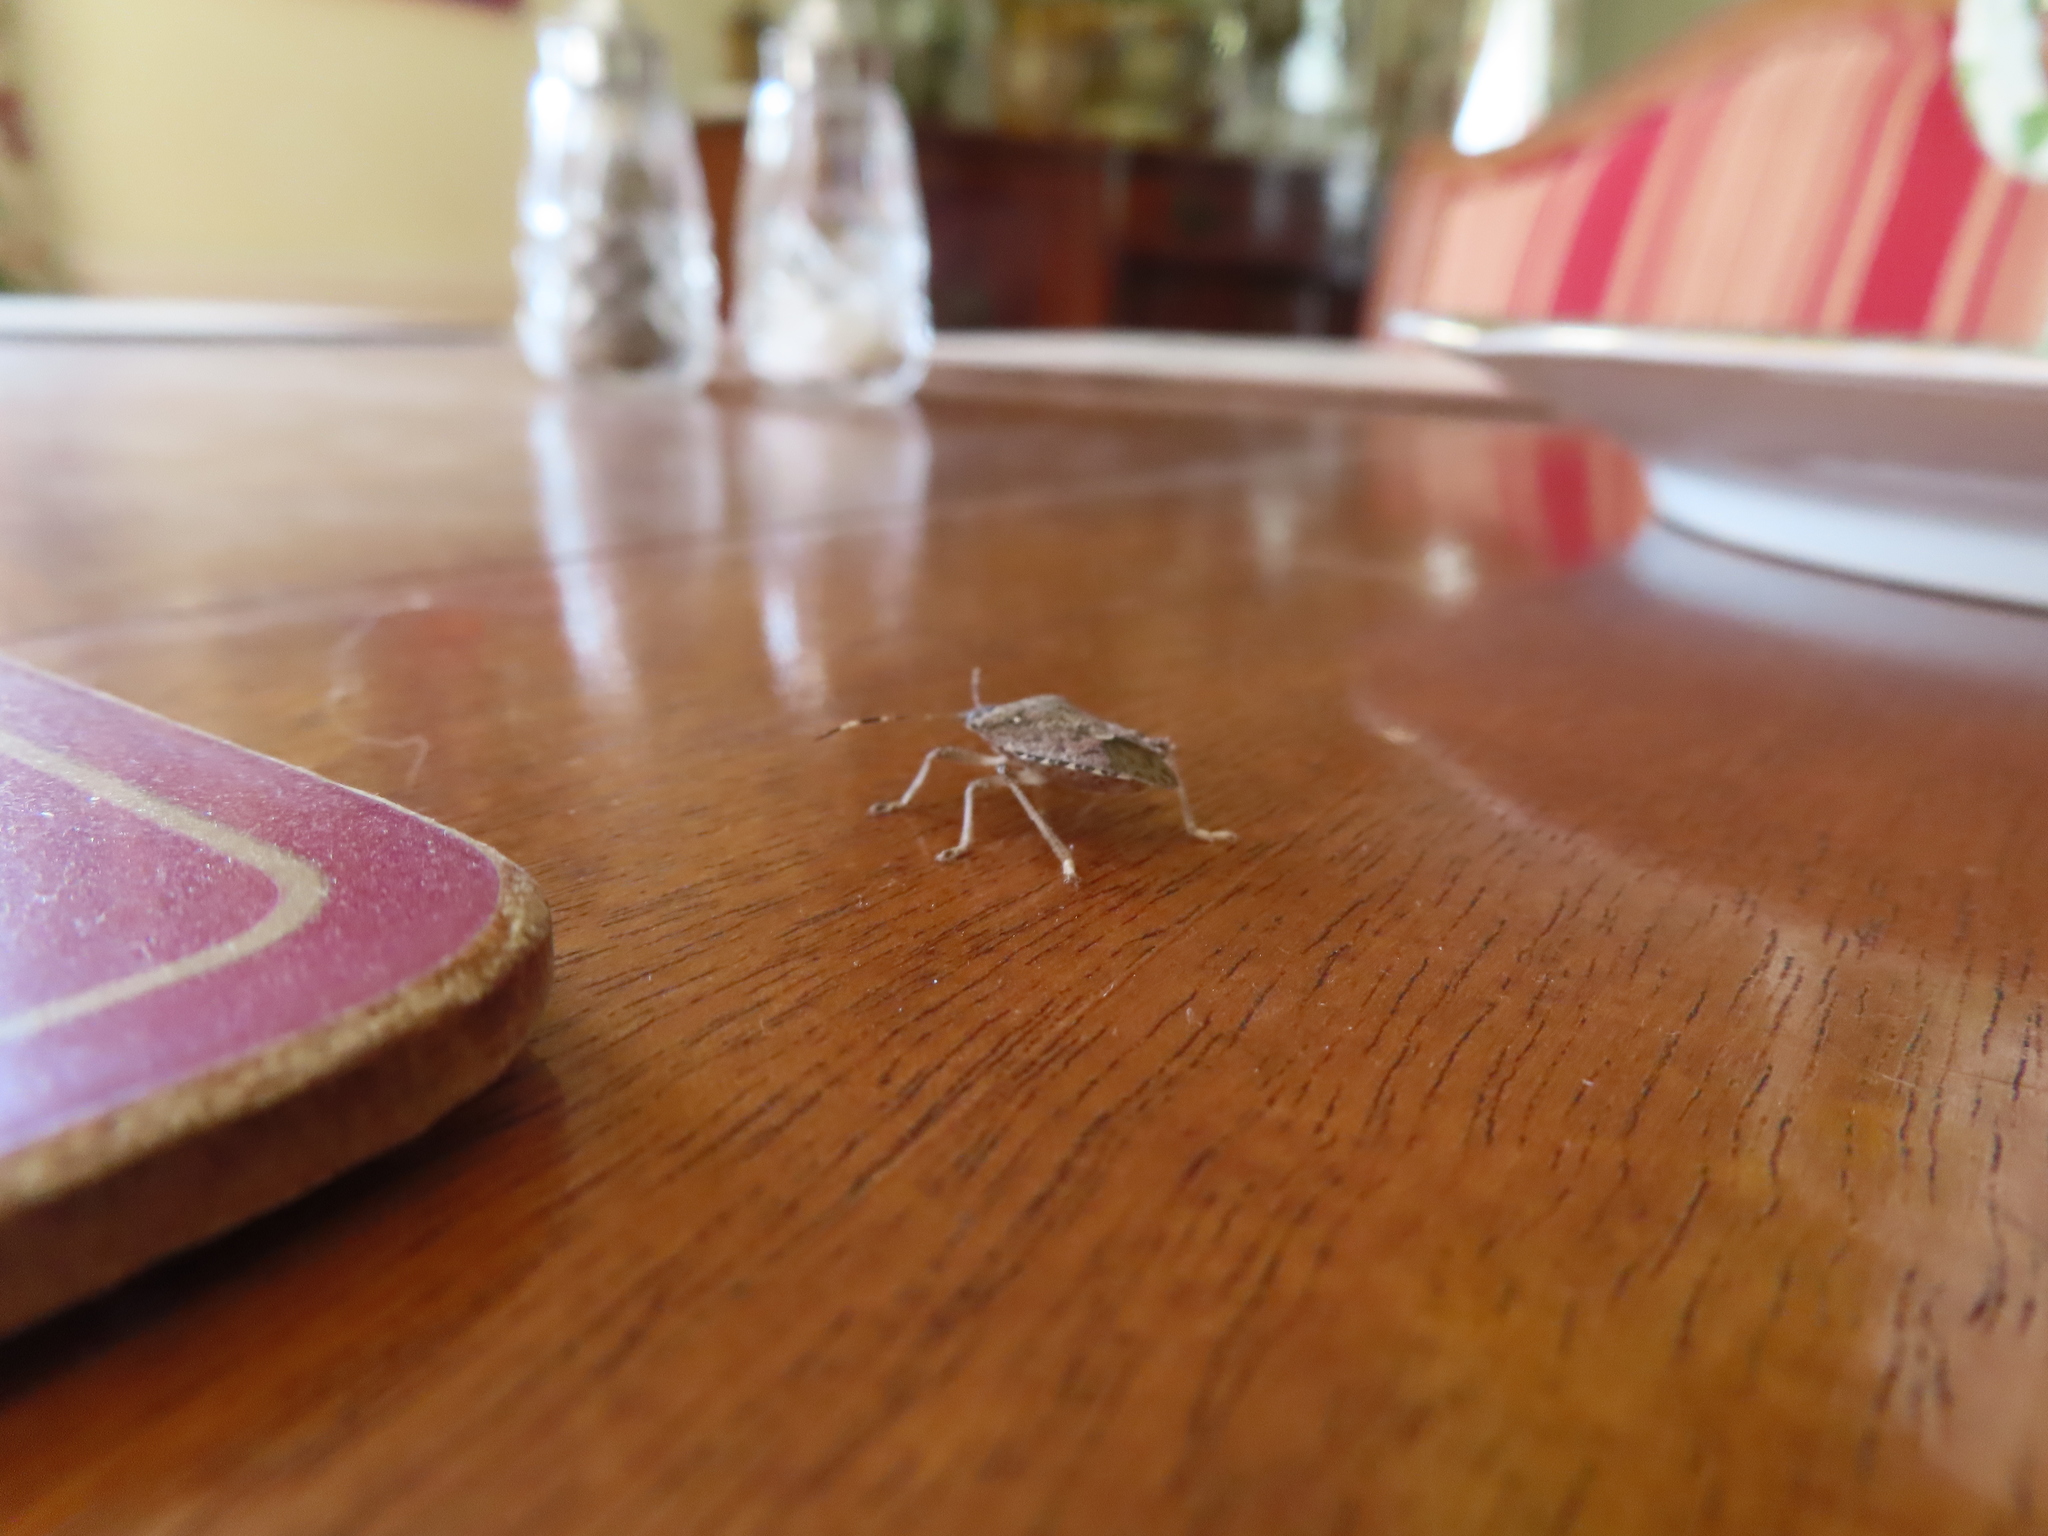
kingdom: Animalia
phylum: Arthropoda
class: Insecta
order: Hemiptera
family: Pentatomidae
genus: Halyomorpha
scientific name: Halyomorpha halys
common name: Brown marmorated stink bug
